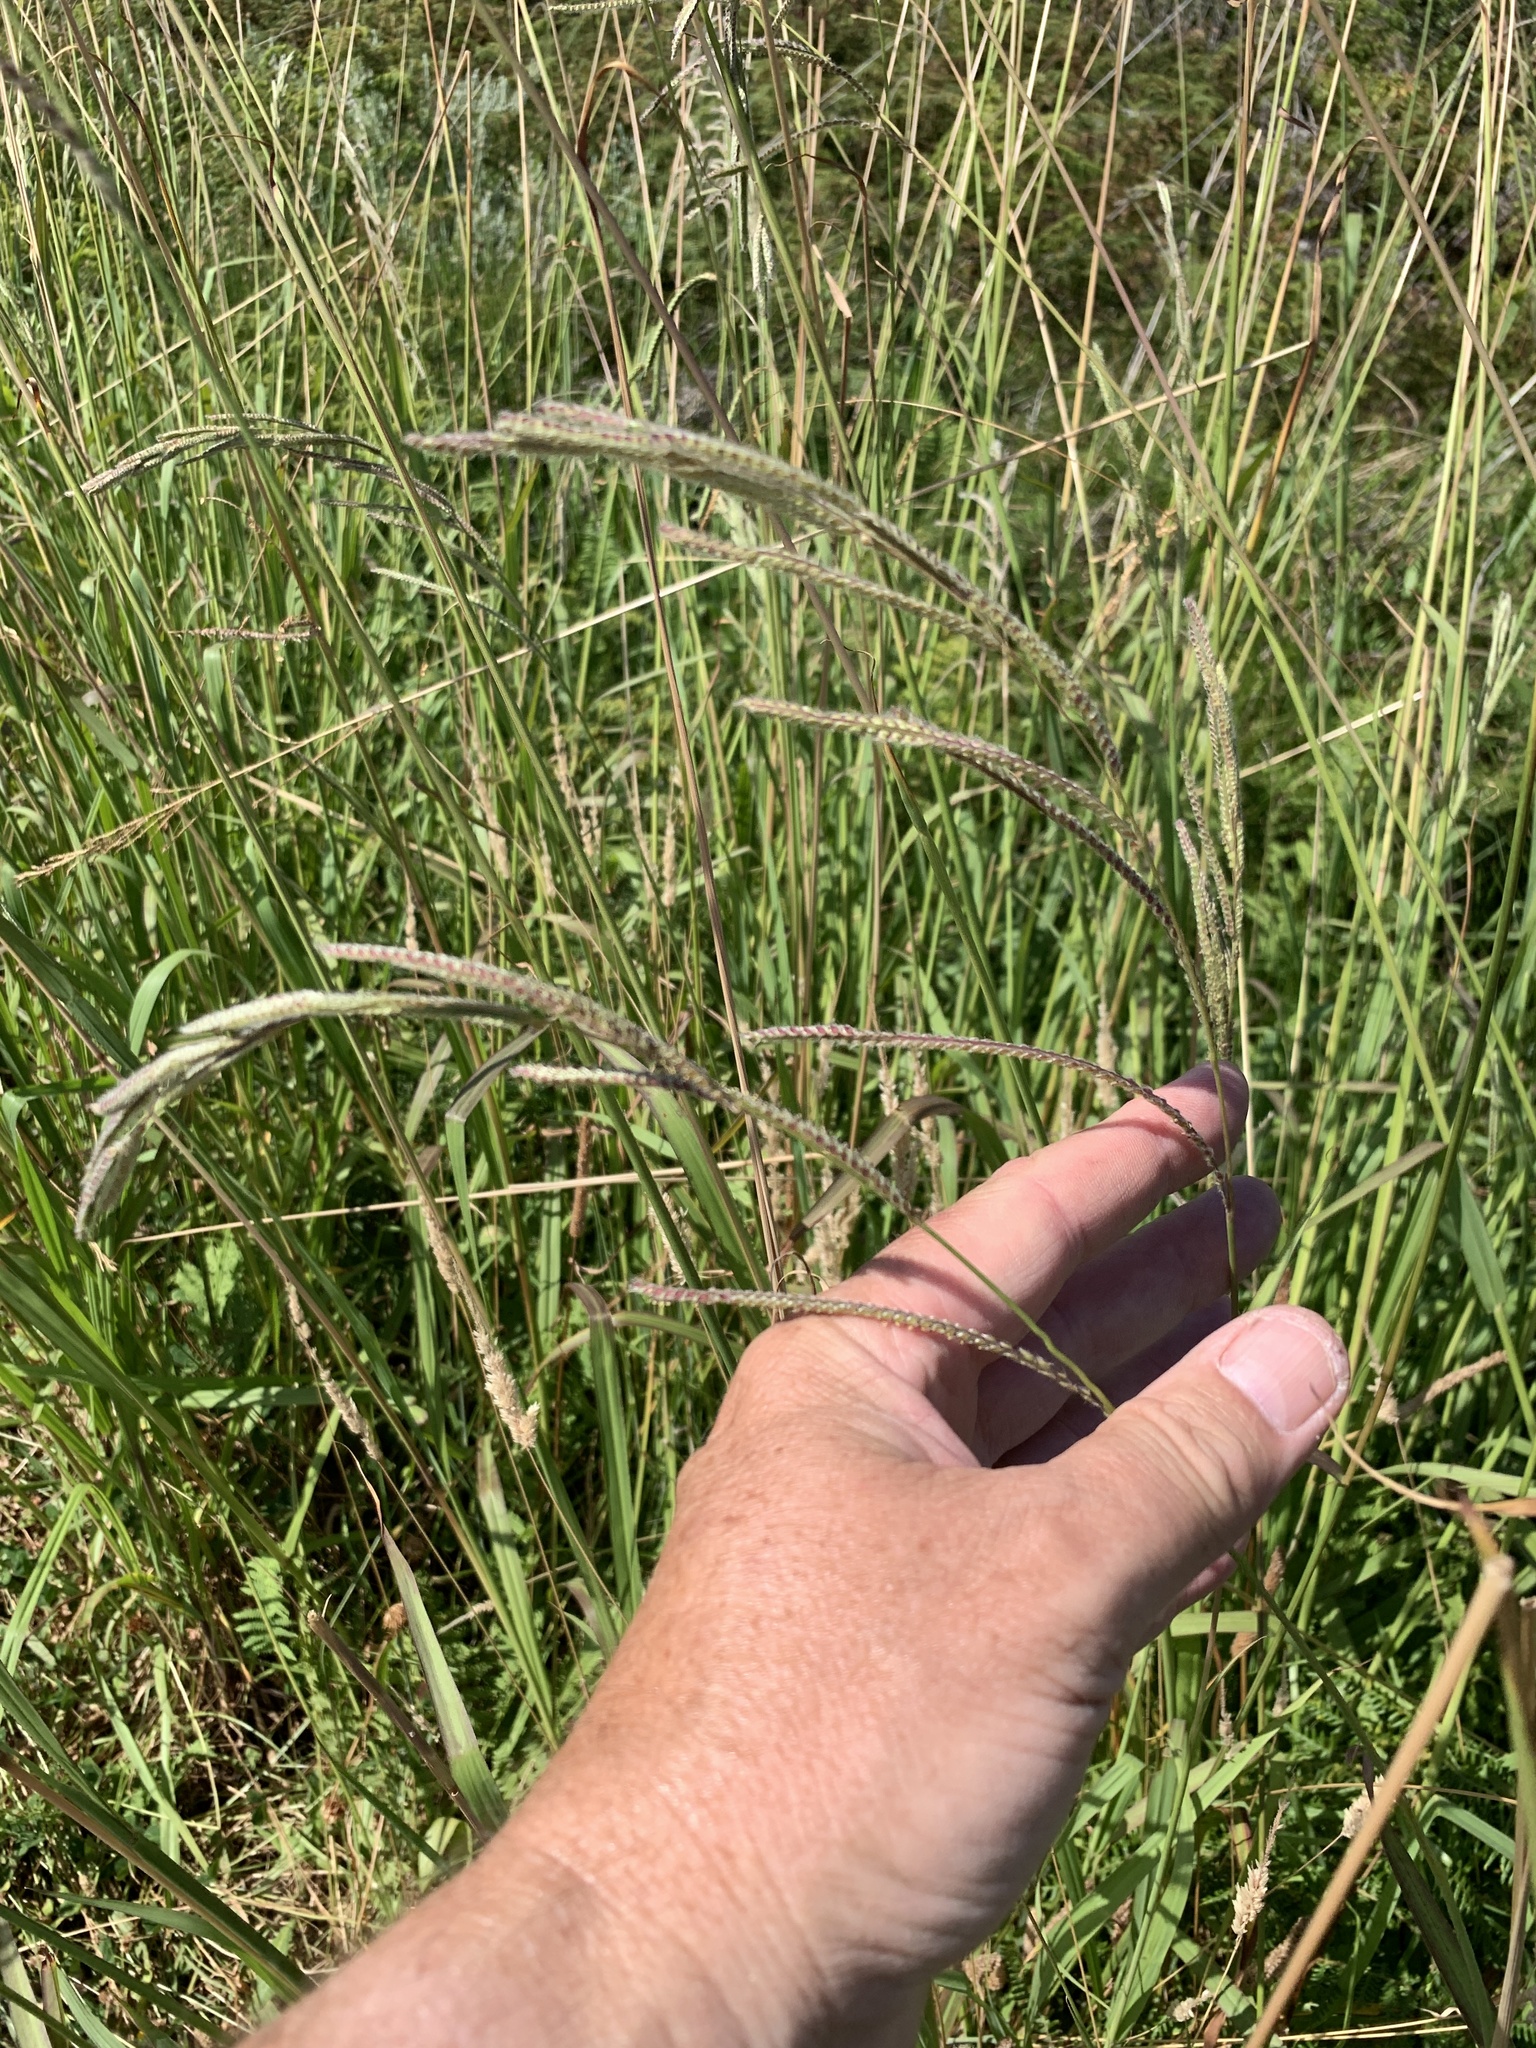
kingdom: Plantae
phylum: Tracheophyta
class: Liliopsida
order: Poales
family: Poaceae
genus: Paspalum
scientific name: Paspalum urvillei
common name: Vasey's grass
